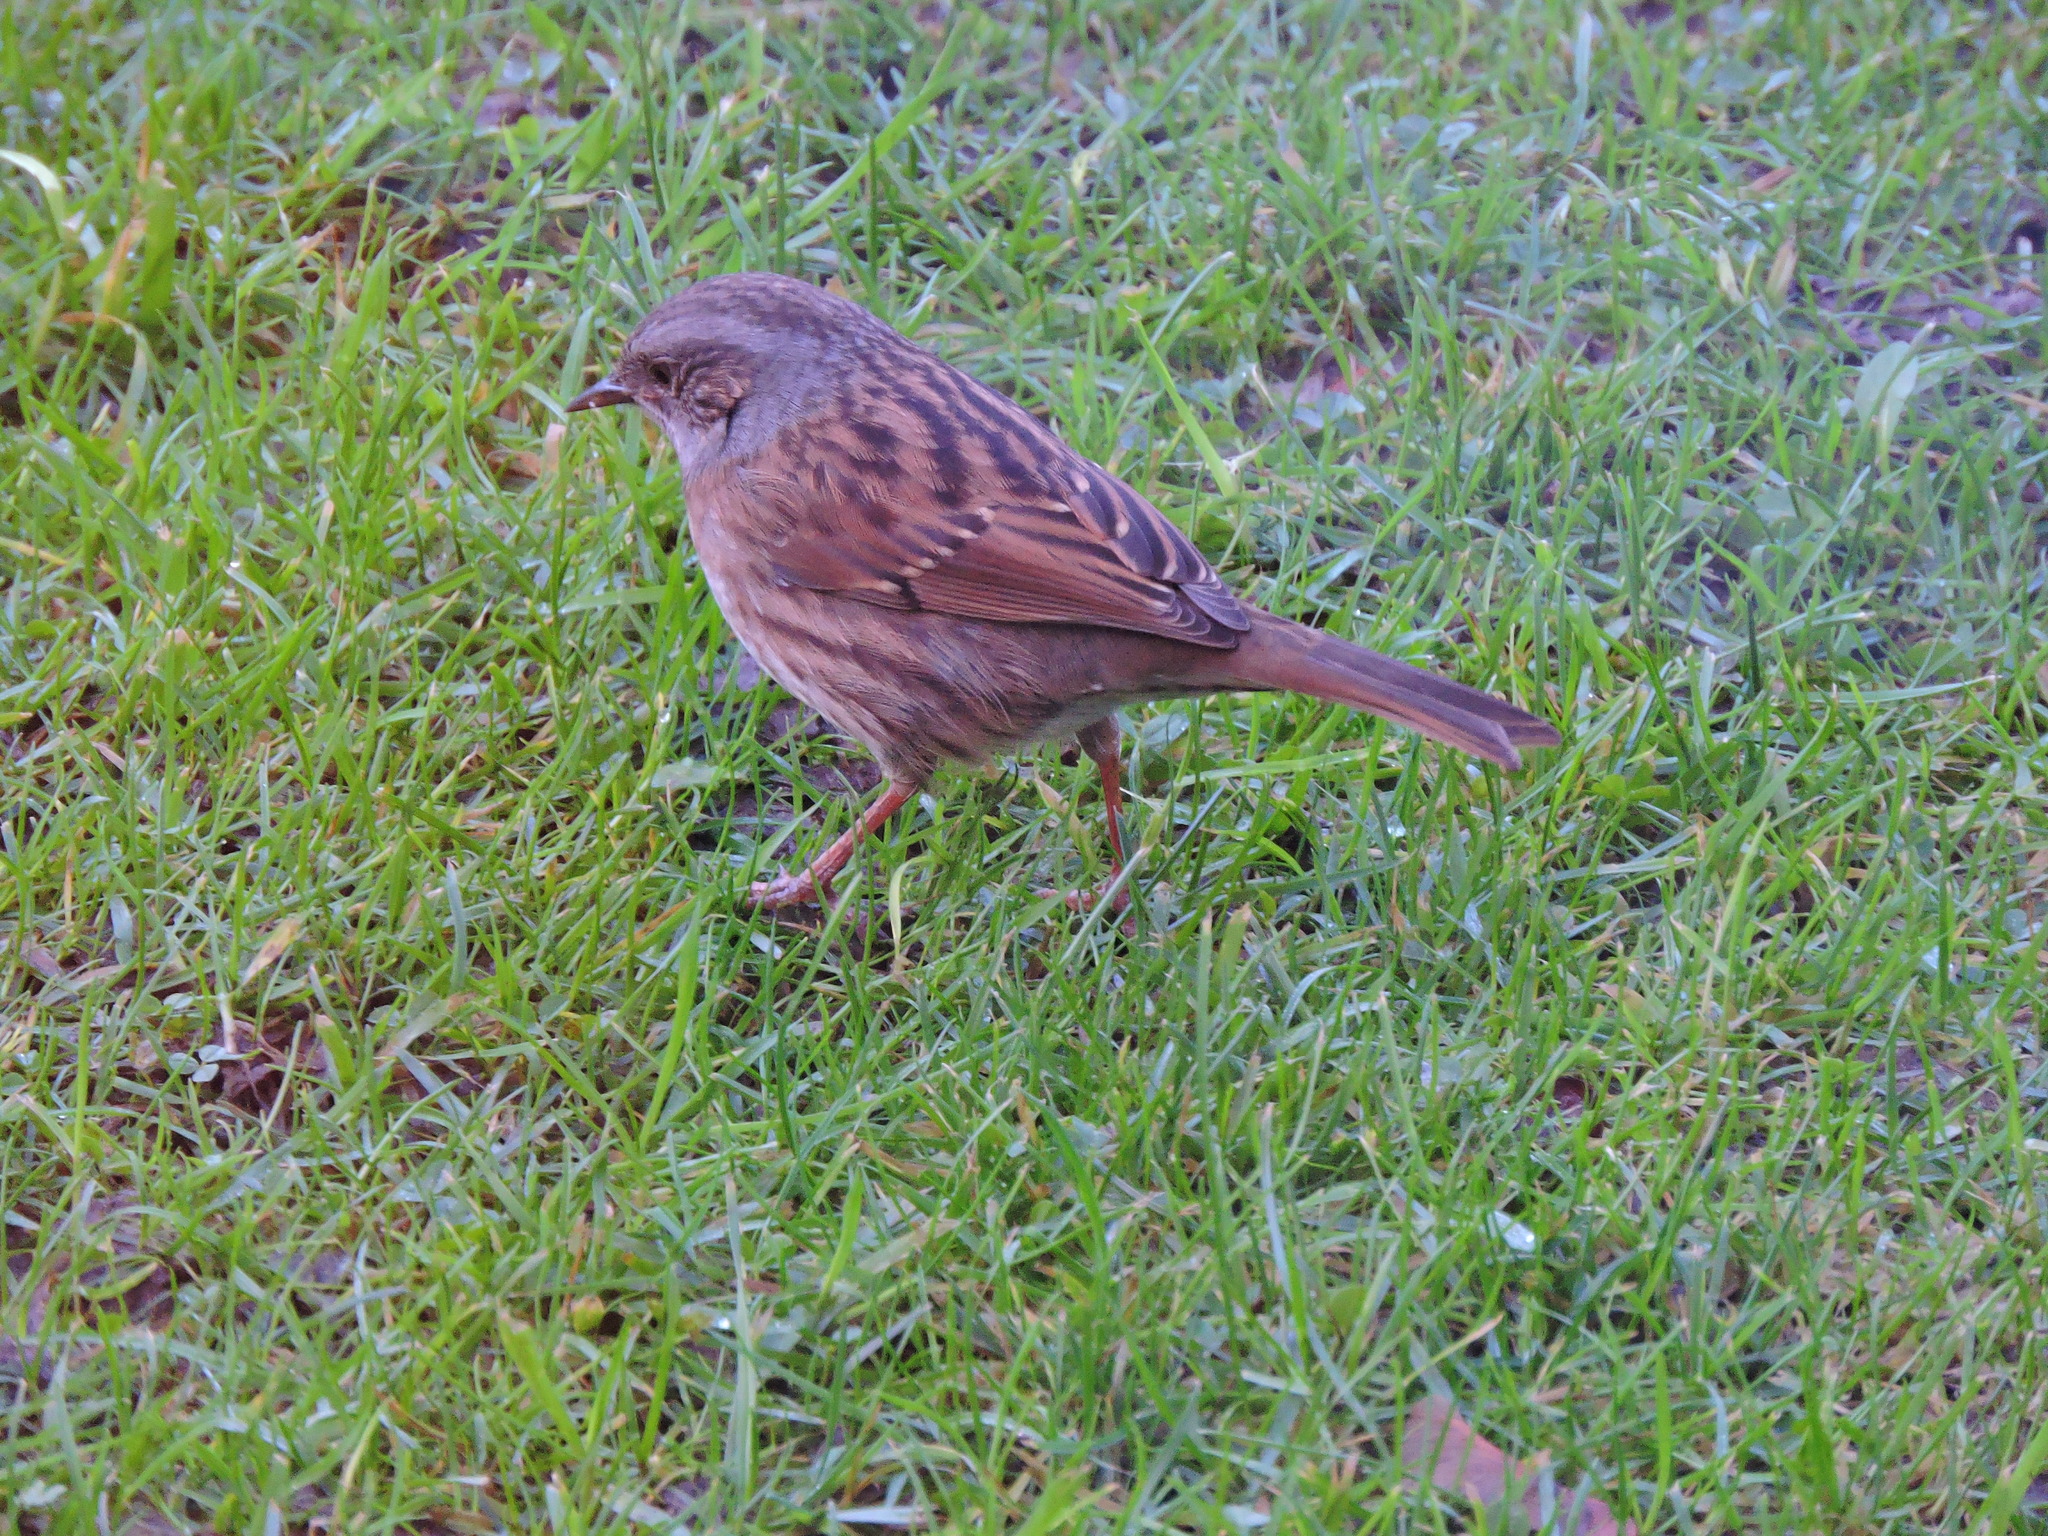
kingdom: Animalia
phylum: Chordata
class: Aves
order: Passeriformes
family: Prunellidae
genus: Prunella
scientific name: Prunella modularis
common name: Dunnock
